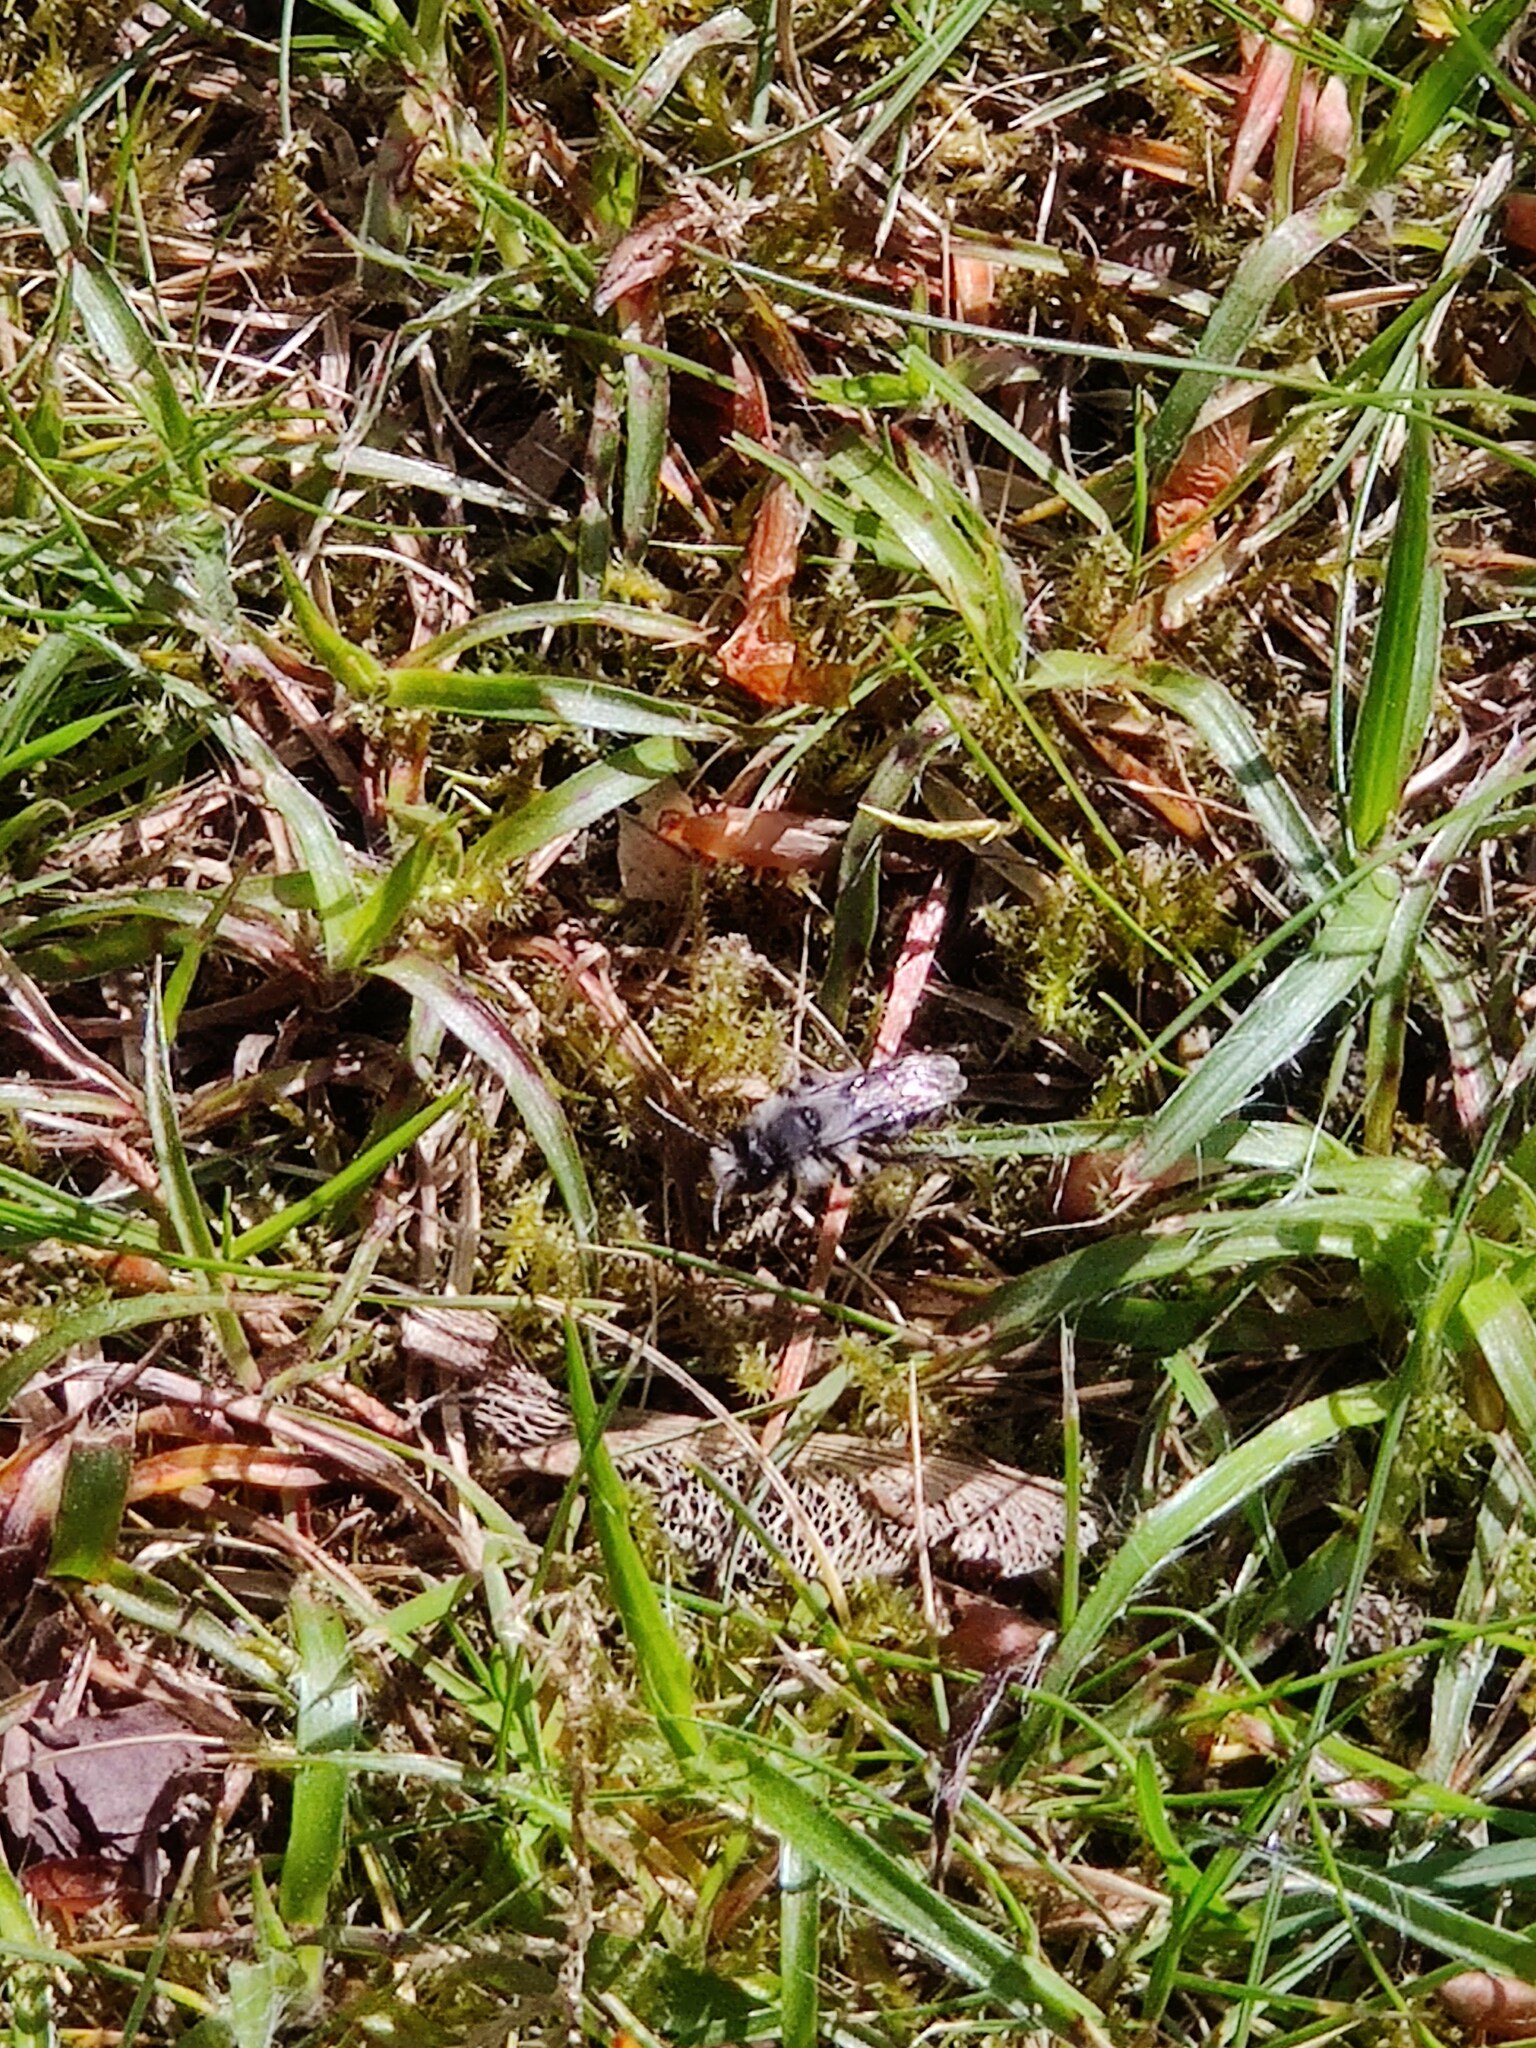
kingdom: Animalia
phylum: Arthropoda
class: Insecta
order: Hymenoptera
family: Andrenidae
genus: Andrena
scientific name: Andrena cineraria
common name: Ashy mining bee
